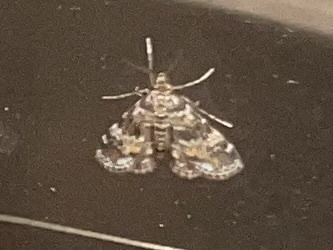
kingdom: Animalia
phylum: Arthropoda
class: Insecta
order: Lepidoptera
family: Crambidae
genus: Elophila
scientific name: Elophila obliteralis
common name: Waterlily leafcutter moth
